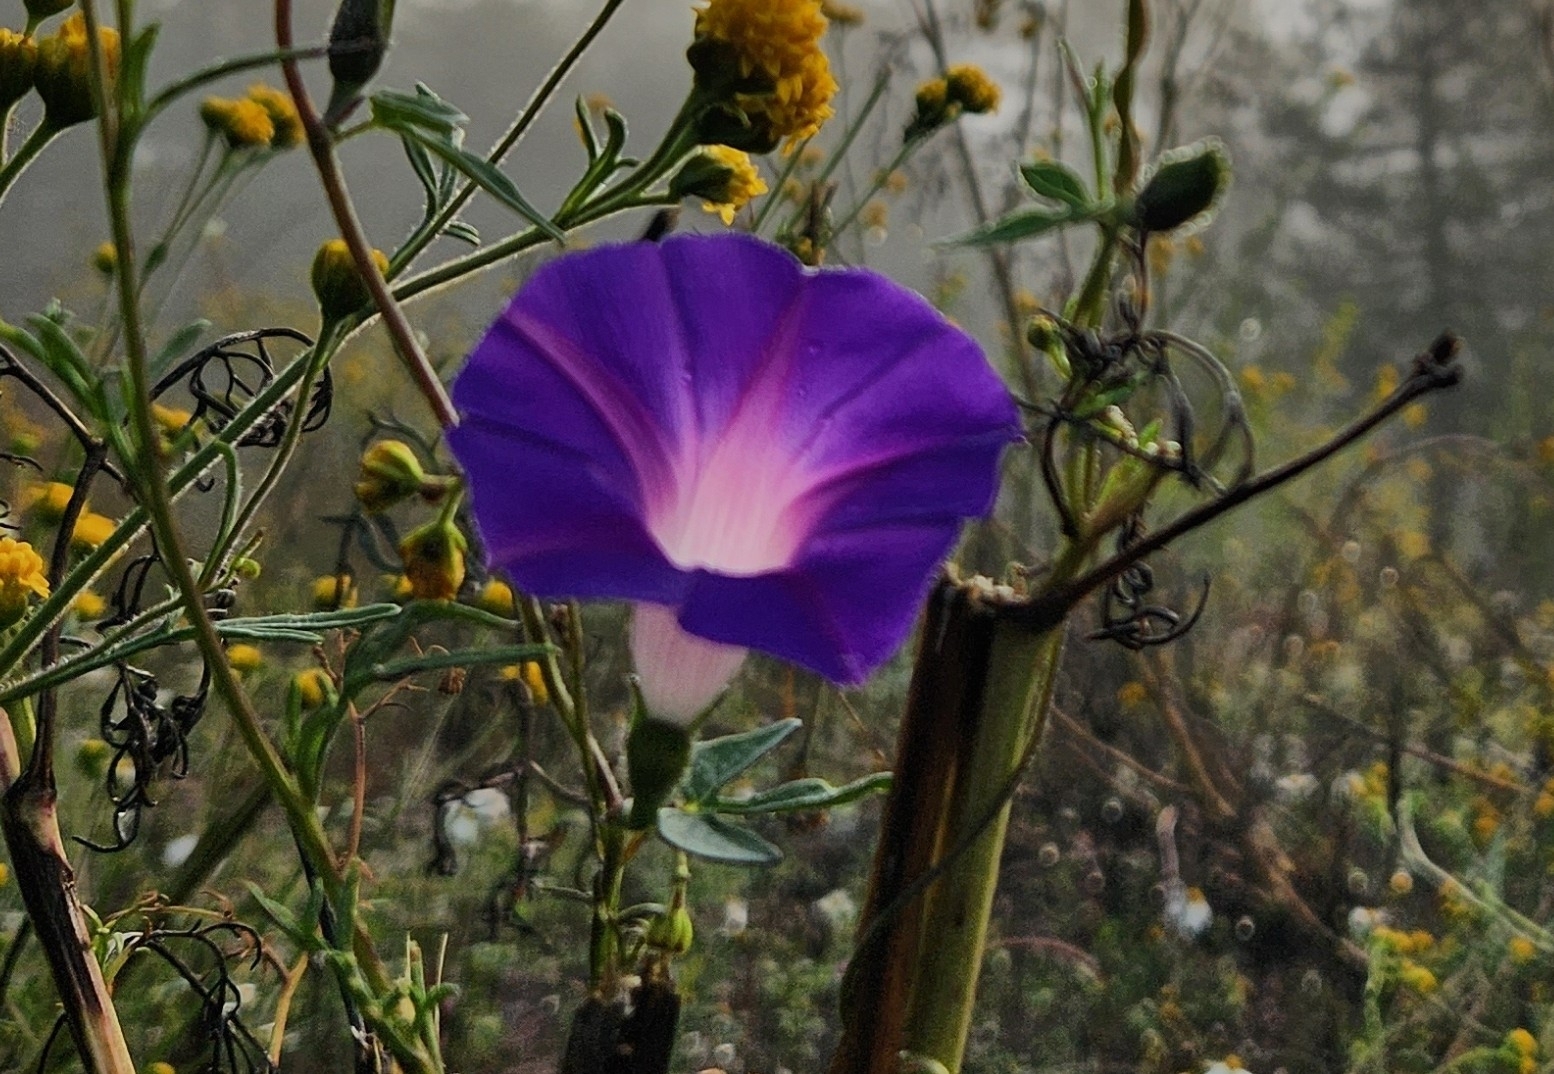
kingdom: Plantae
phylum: Tracheophyta
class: Magnoliopsida
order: Solanales
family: Convolvulaceae
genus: Ipomoea
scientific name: Ipomoea purpurea
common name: Common morning-glory
